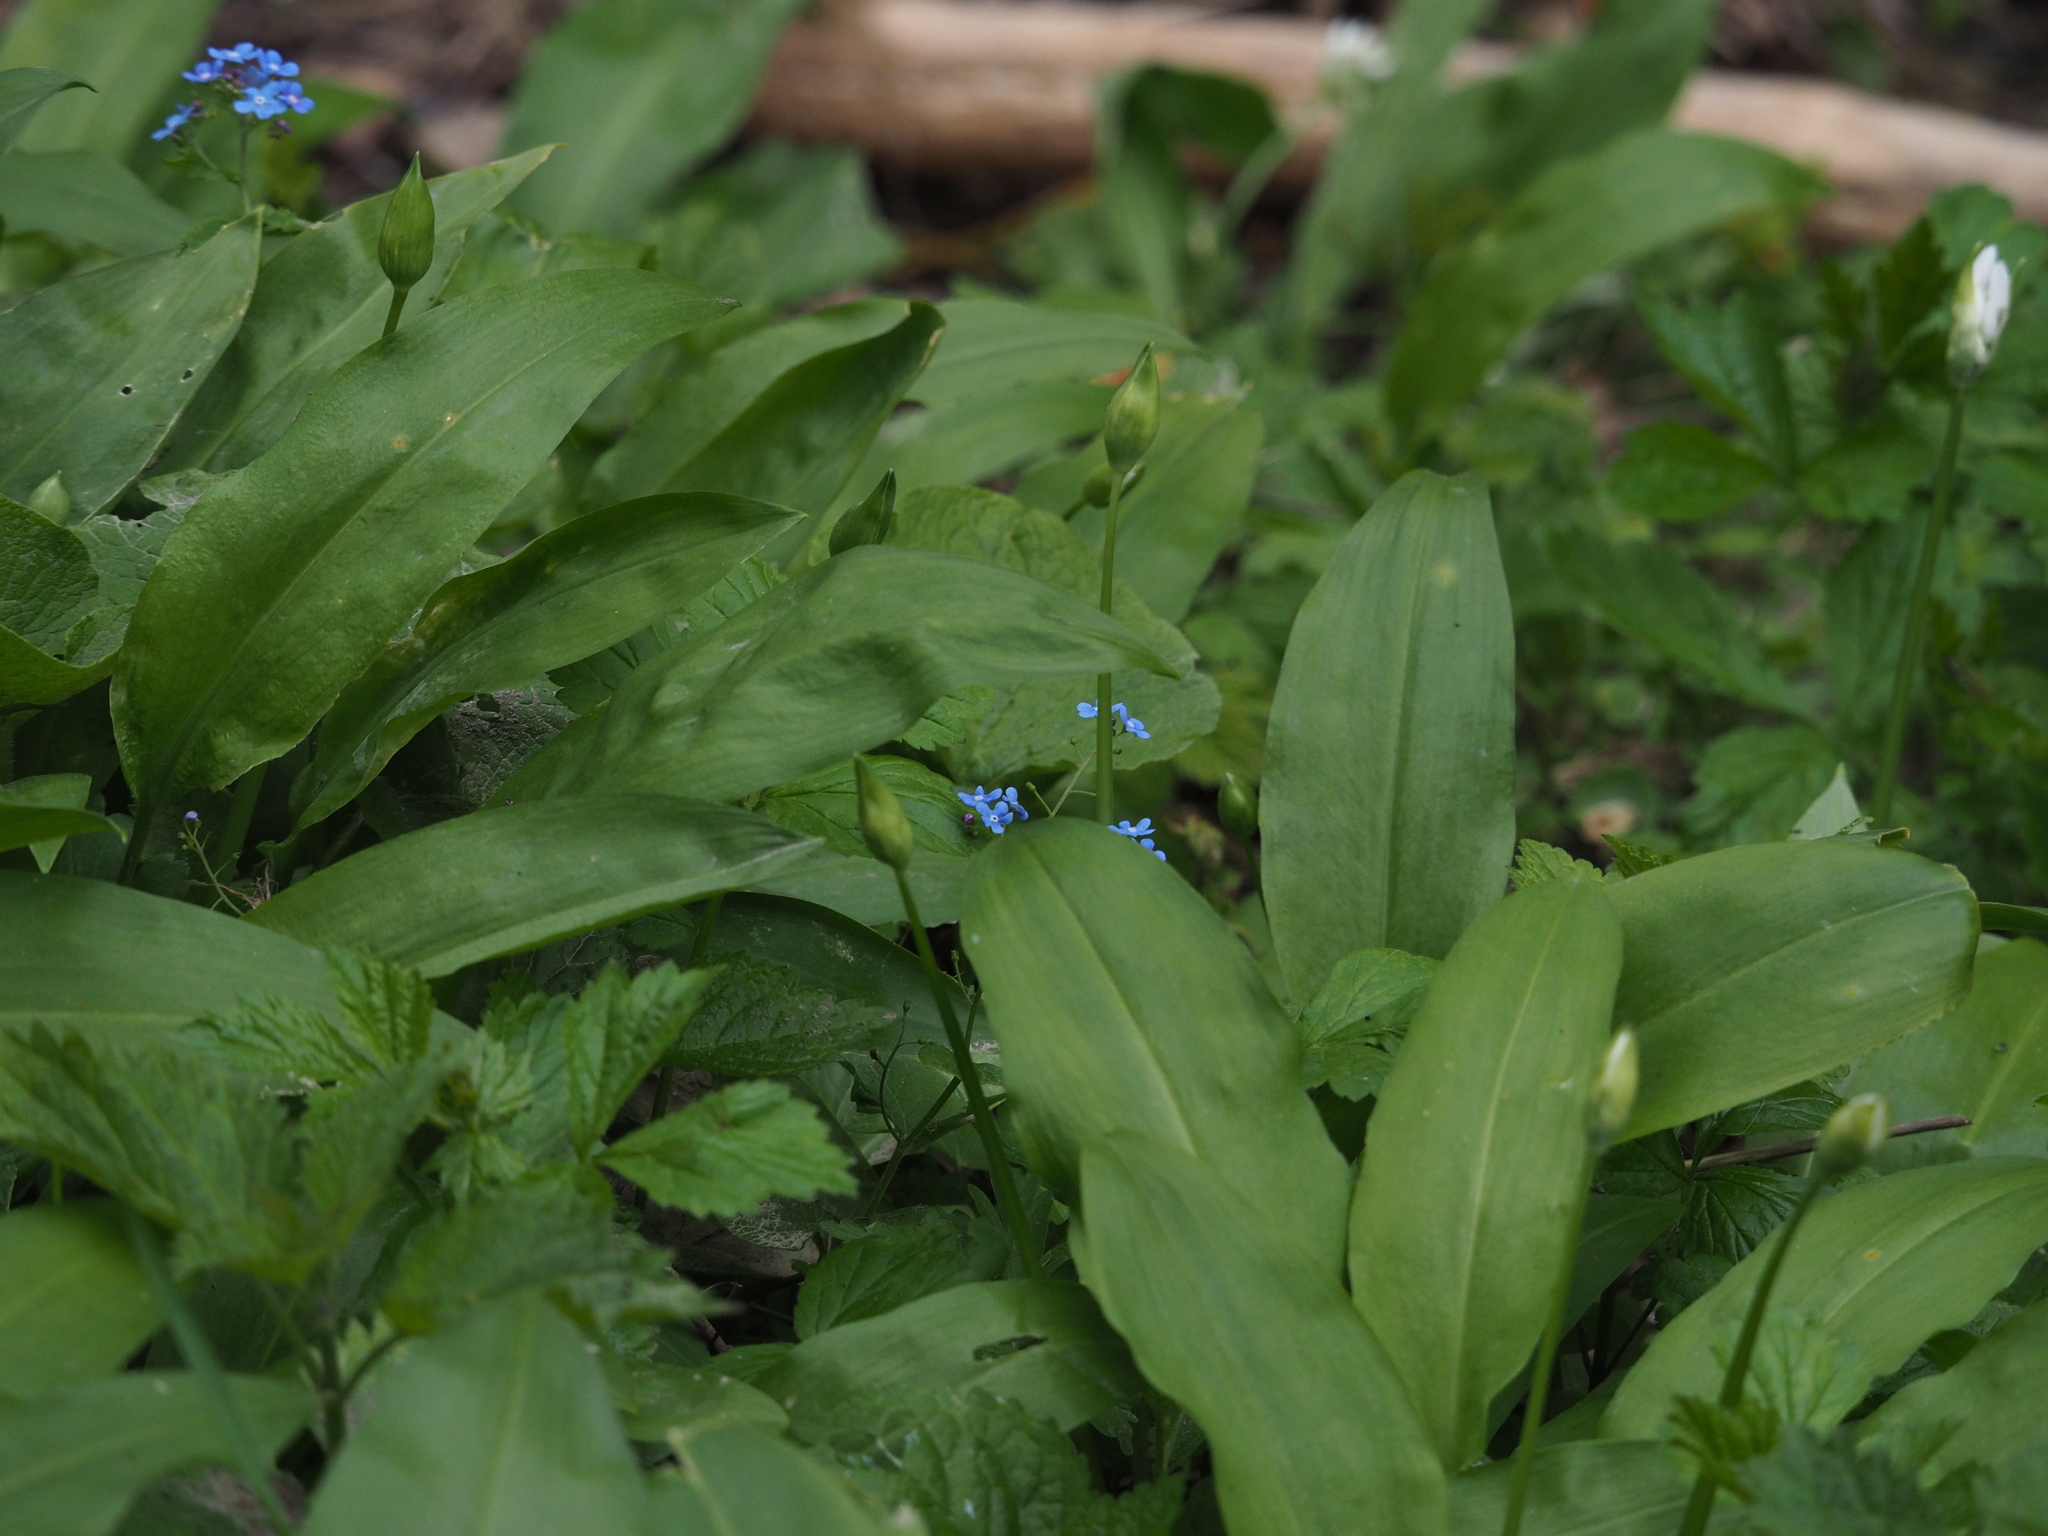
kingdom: Plantae
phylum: Tracheophyta
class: Magnoliopsida
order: Boraginales
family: Boraginaceae
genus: Brunnera
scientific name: Brunnera macrophylla
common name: Great forget-me-not
